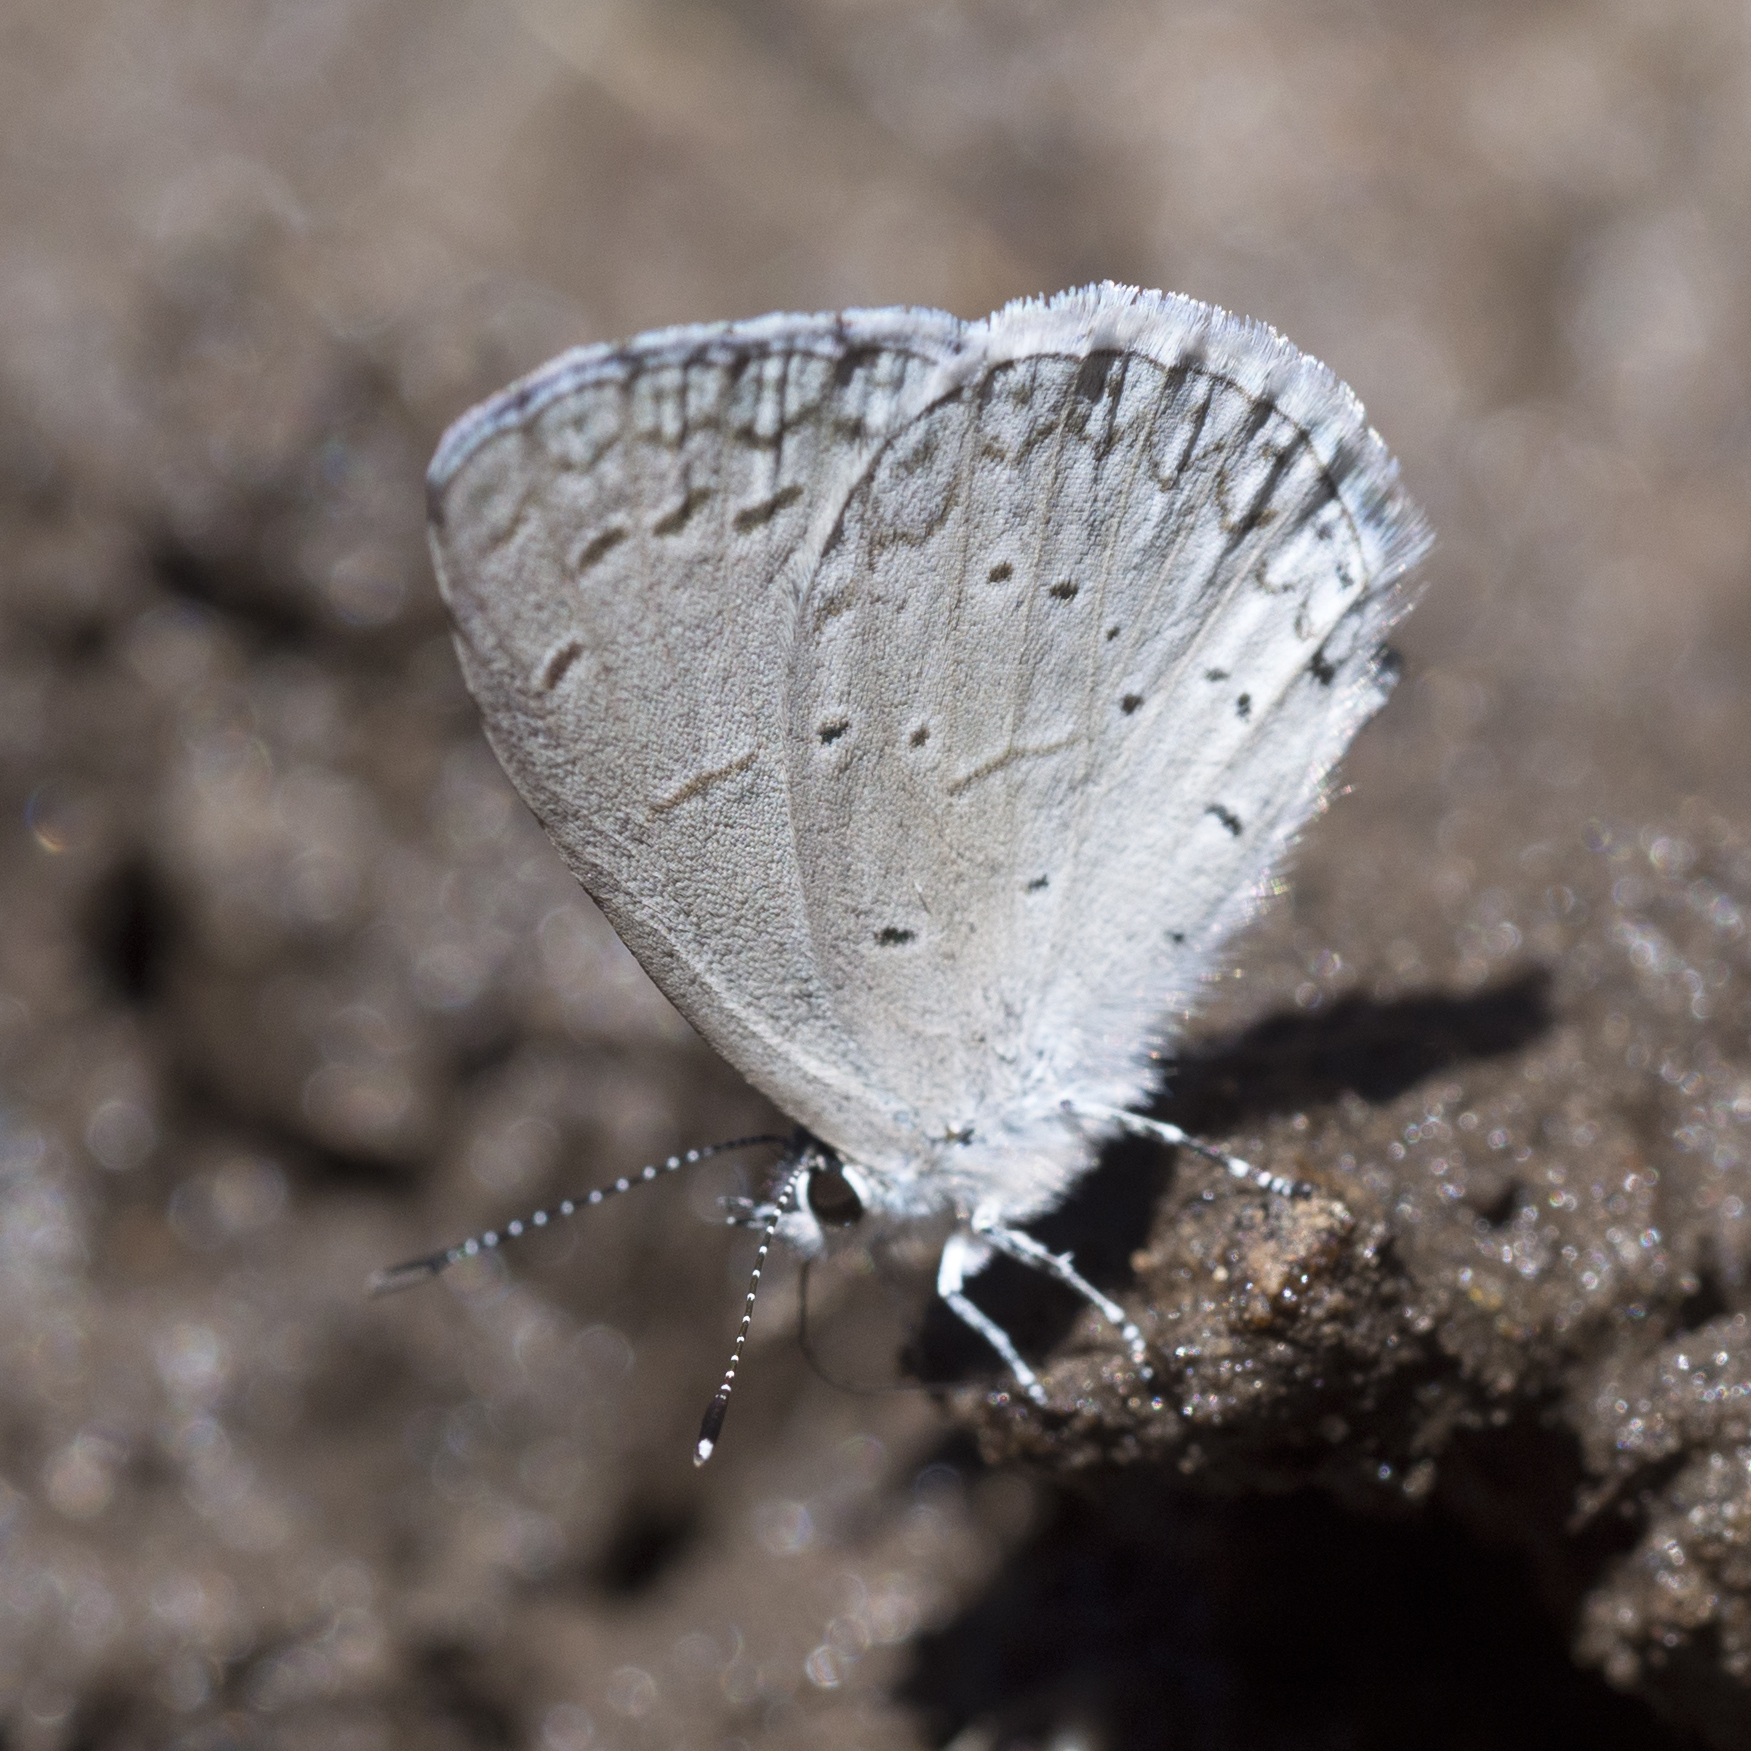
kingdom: Animalia
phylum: Arthropoda
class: Insecta
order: Lepidoptera
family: Lycaenidae
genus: Celastrina
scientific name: Celastrina argiolus
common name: Holly blue
